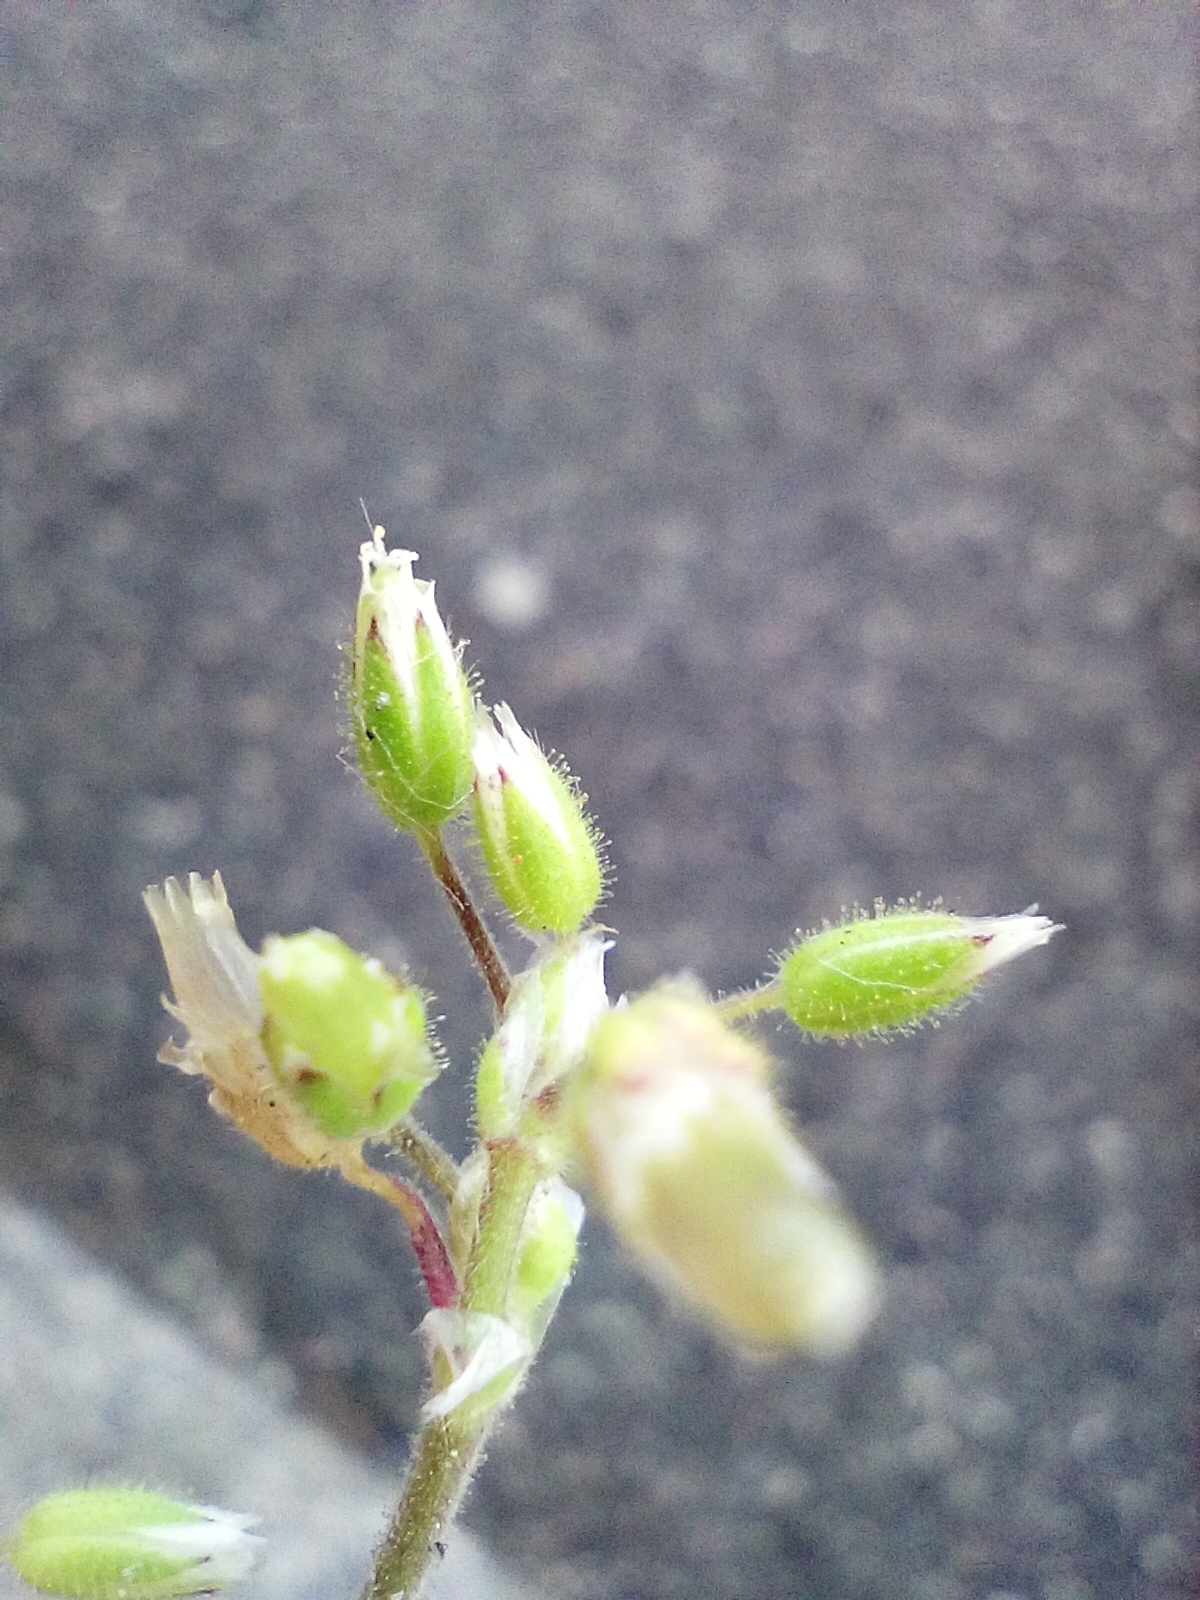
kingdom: Plantae
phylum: Tracheophyta
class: Magnoliopsida
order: Caryophyllales
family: Caryophyllaceae
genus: Cerastium
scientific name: Cerastium semidecandrum
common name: Little mouse-ear
